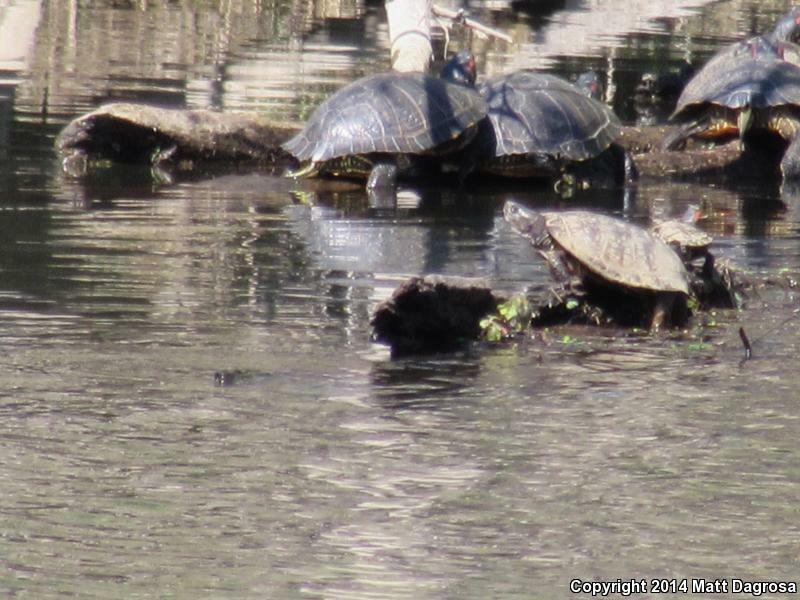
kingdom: Animalia
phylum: Chordata
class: Testudines
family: Emydidae
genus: Actinemys
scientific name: Actinemys marmorata
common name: Western pond turtle
